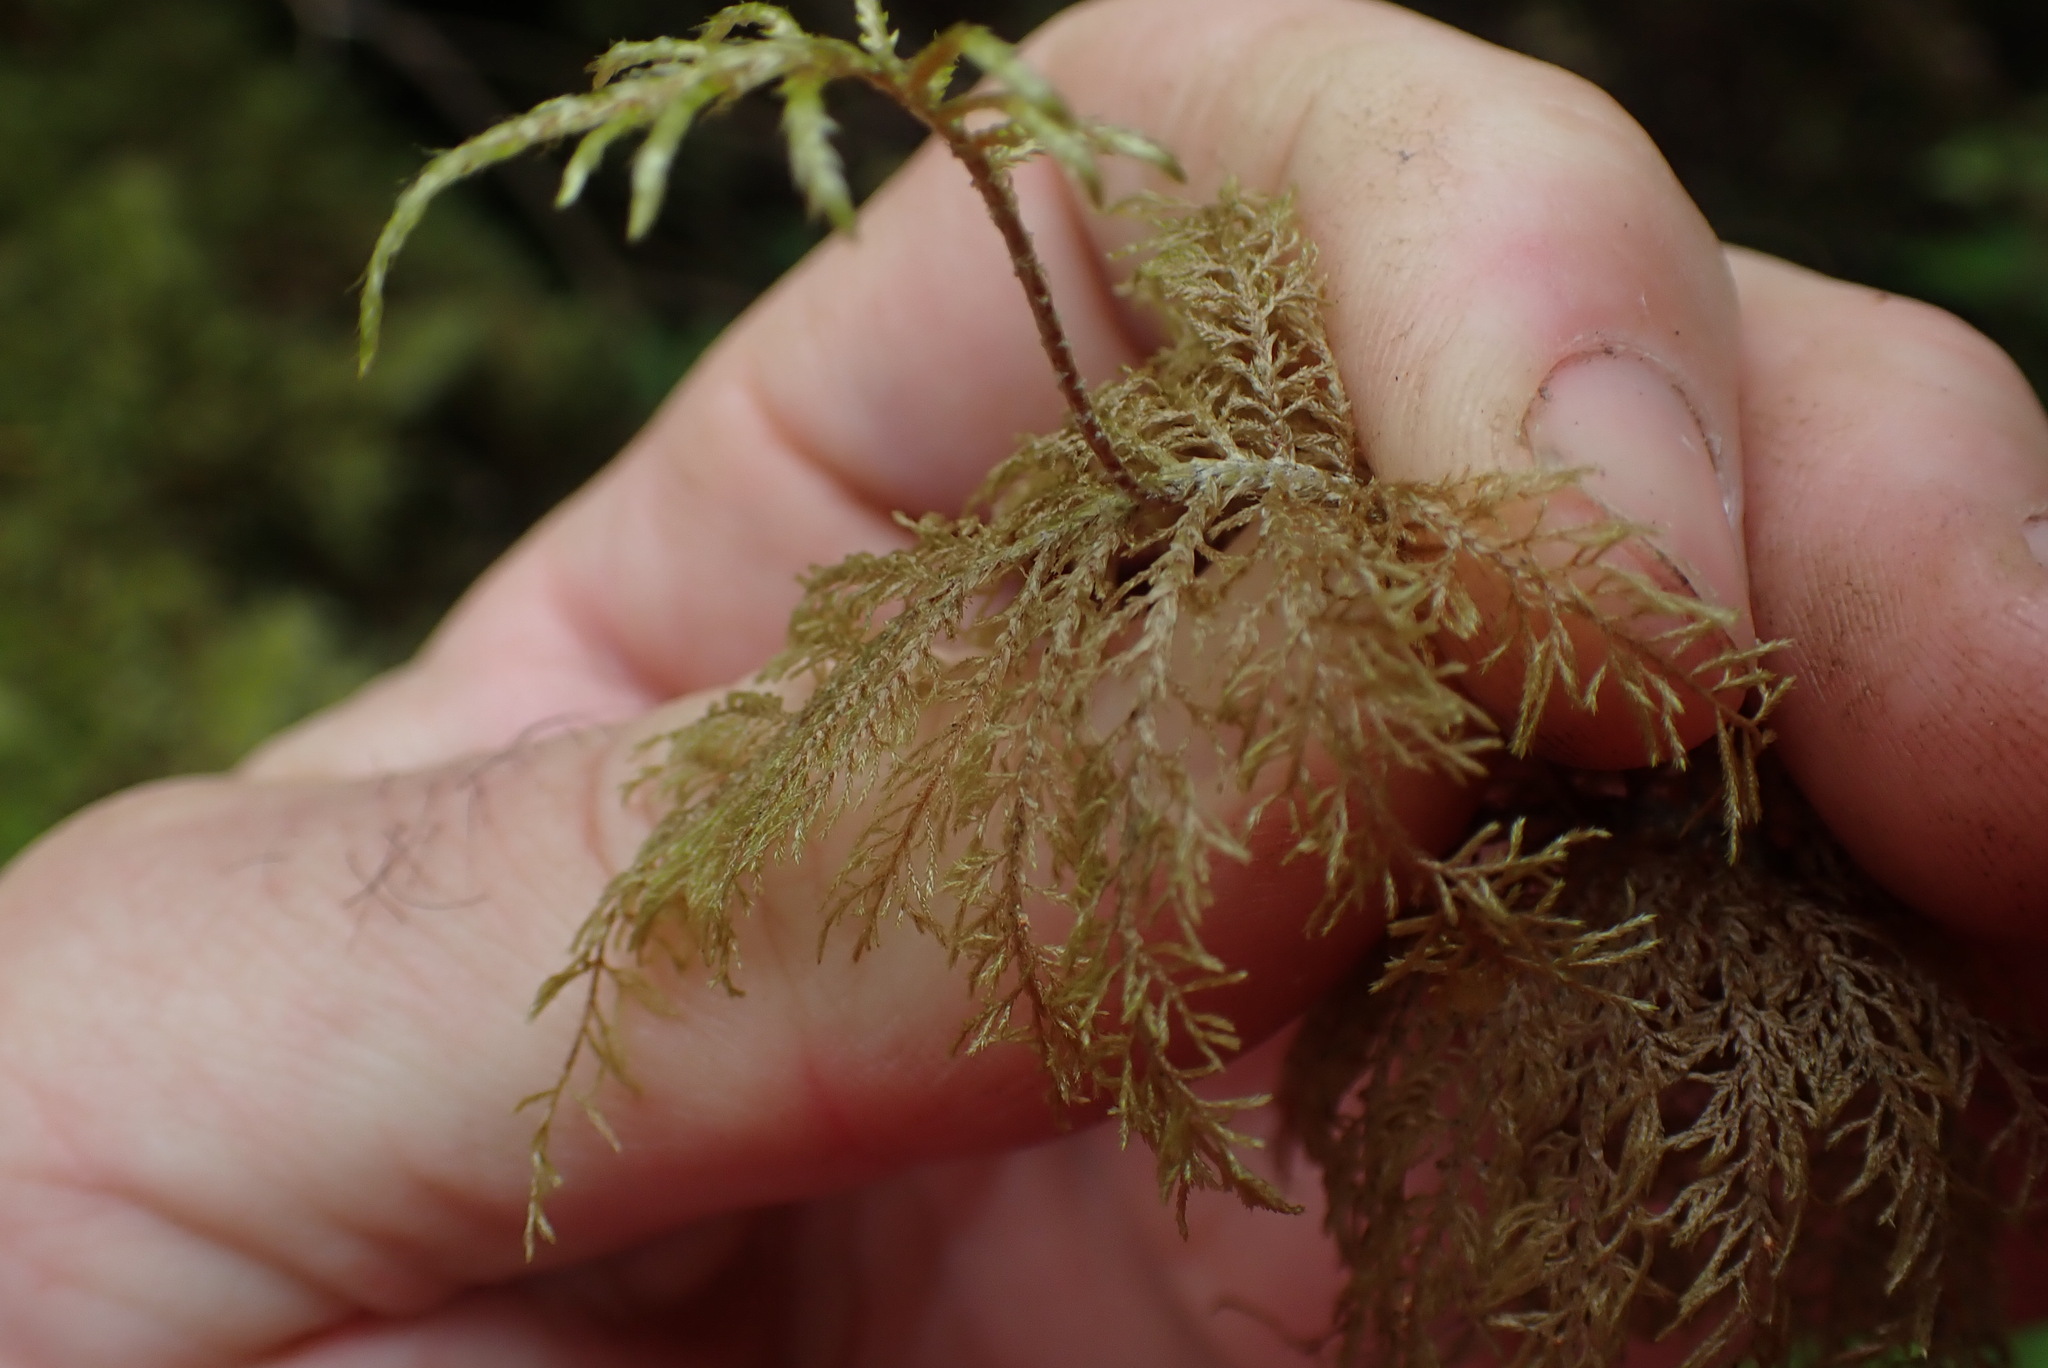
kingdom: Plantae
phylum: Bryophyta
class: Bryopsida
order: Hypnales
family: Hylocomiaceae
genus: Hylocomium
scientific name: Hylocomium splendens
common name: Stairstep moss
